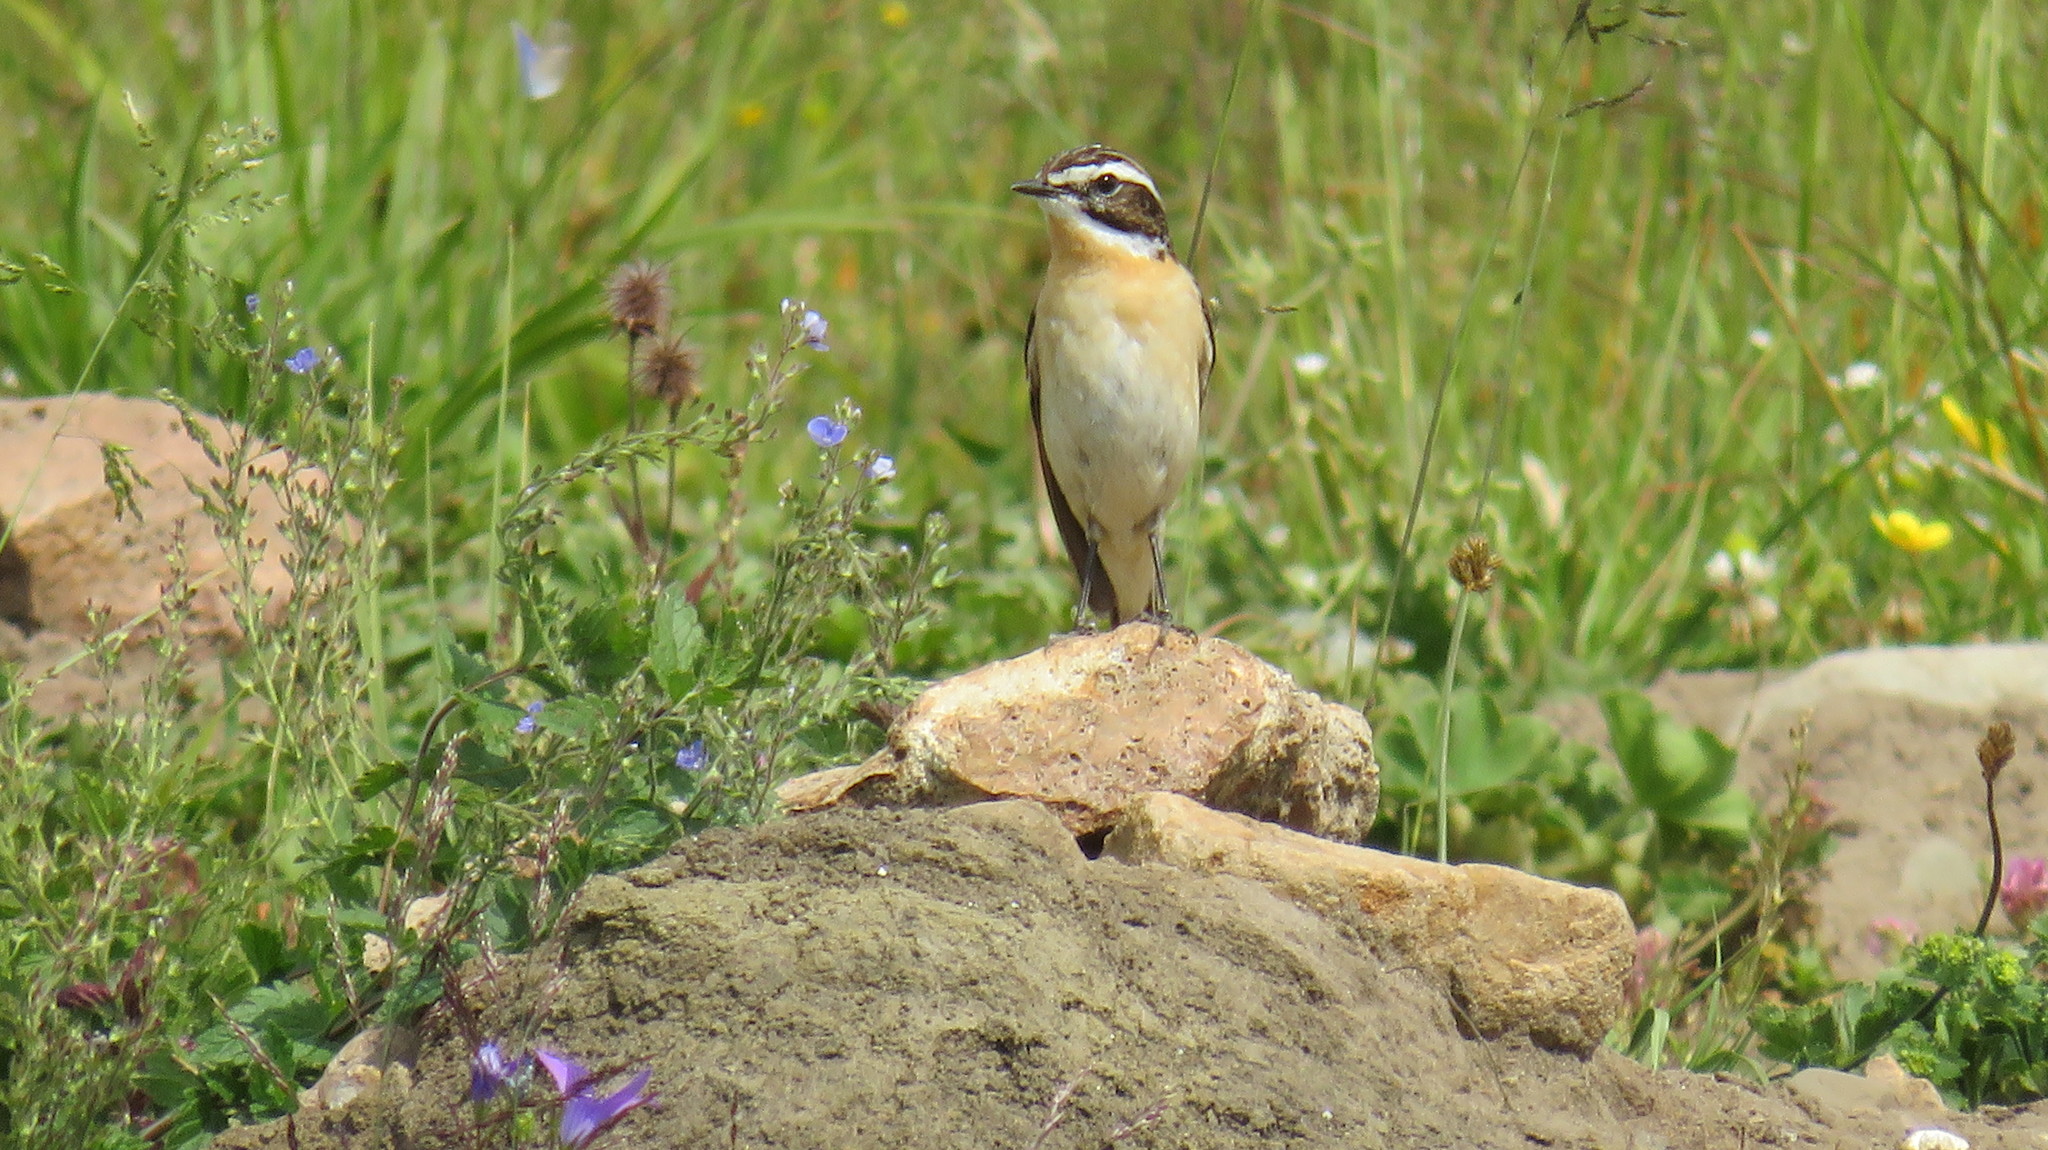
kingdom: Animalia
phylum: Chordata
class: Aves
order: Passeriformes
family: Muscicapidae
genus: Saxicola
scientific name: Saxicola rubetra
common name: Whinchat
